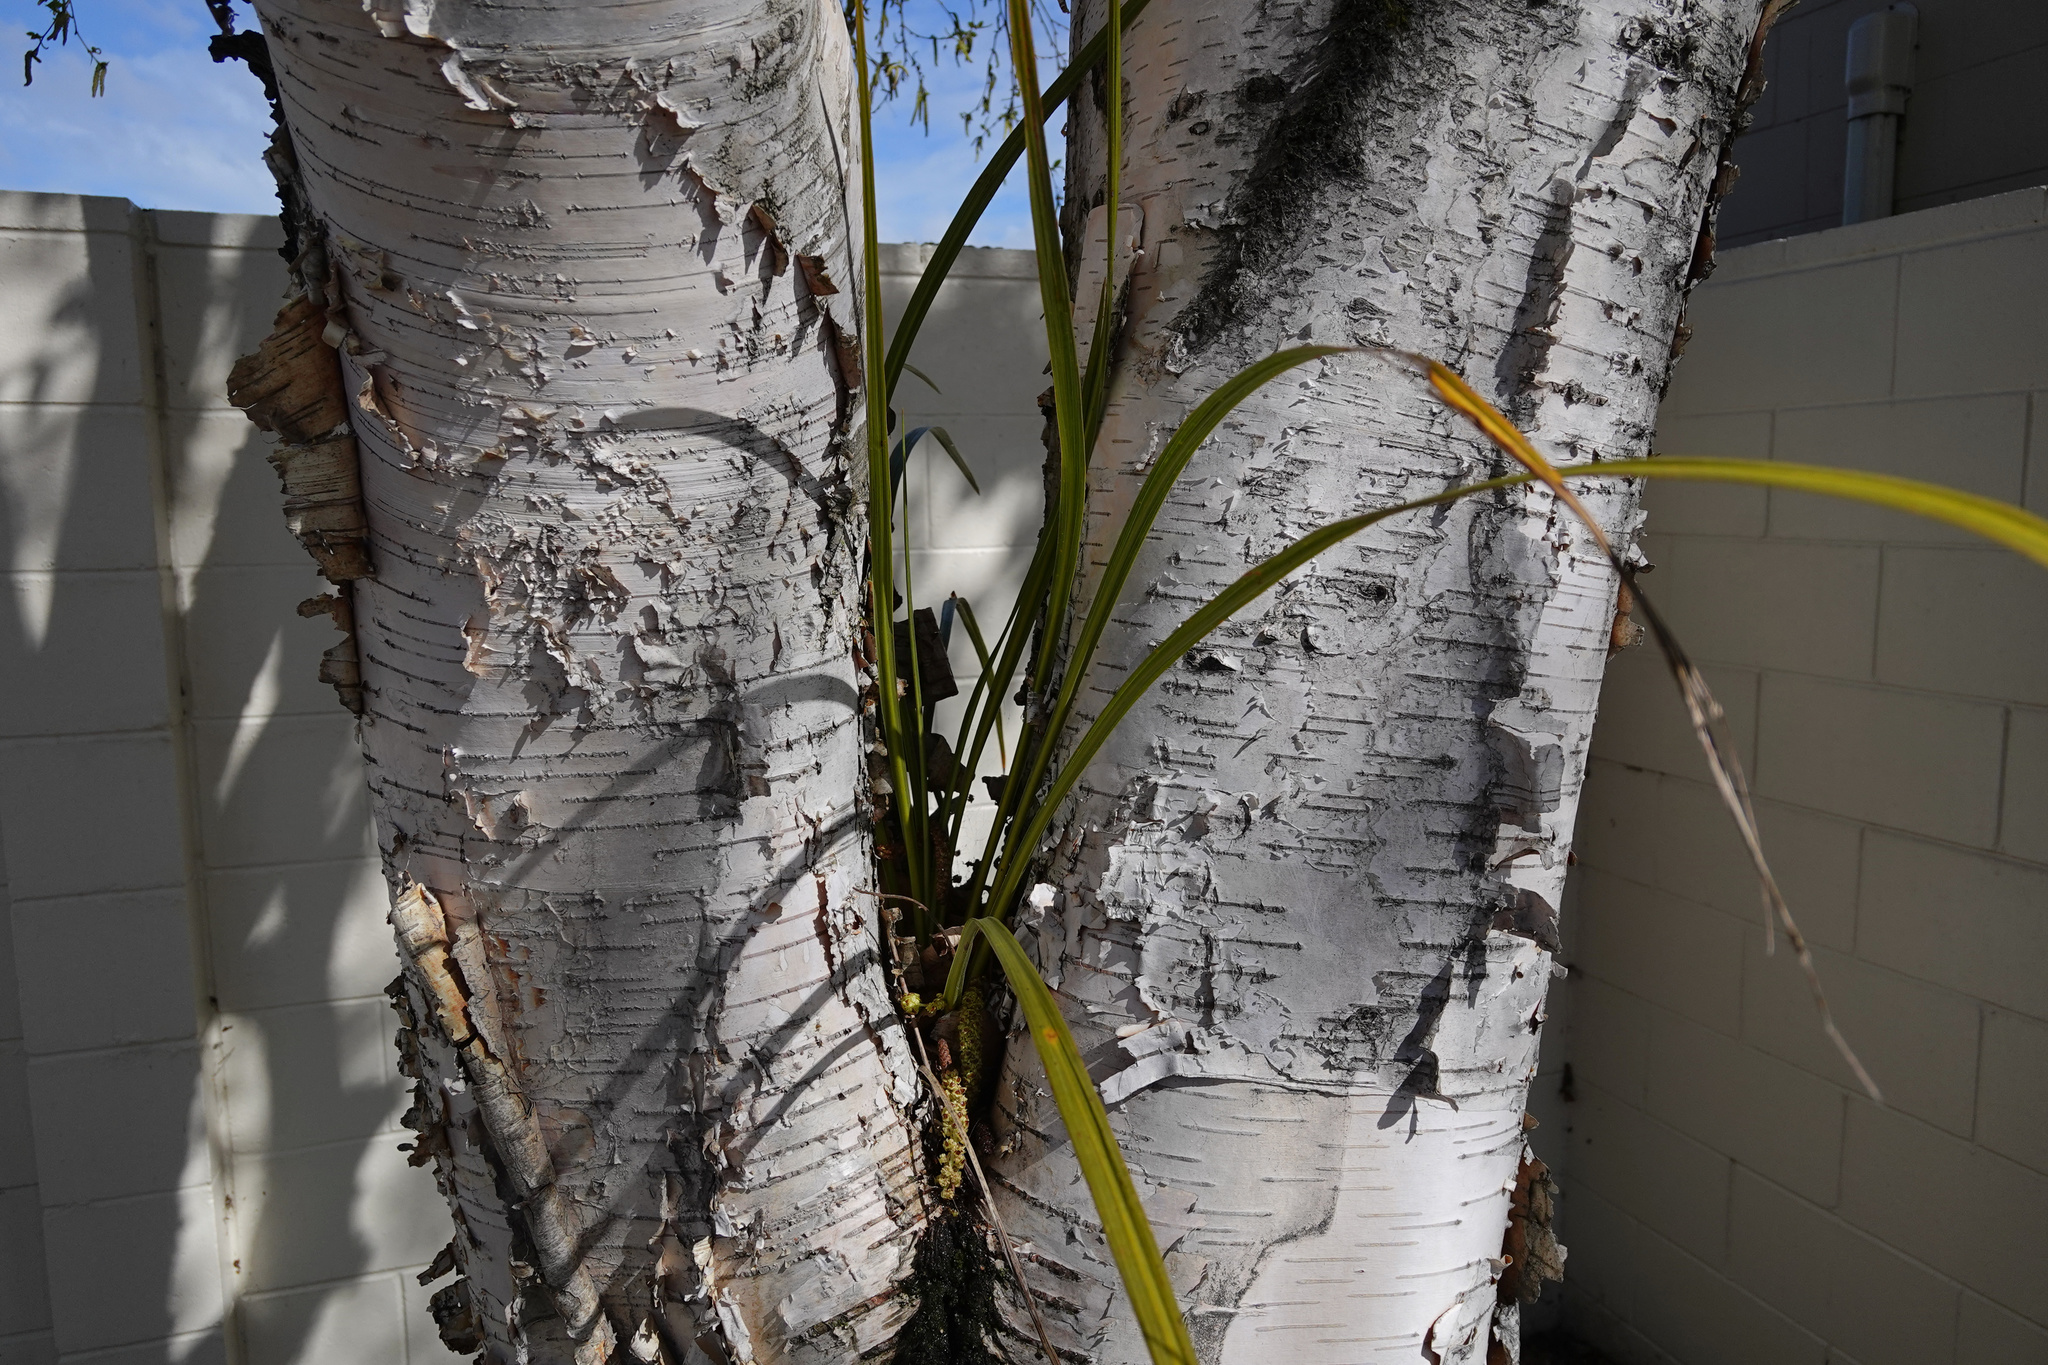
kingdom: Plantae
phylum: Tracheophyta
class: Liliopsida
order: Asparagales
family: Asparagaceae
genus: Cordyline
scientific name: Cordyline australis
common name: Cabbage-palm
